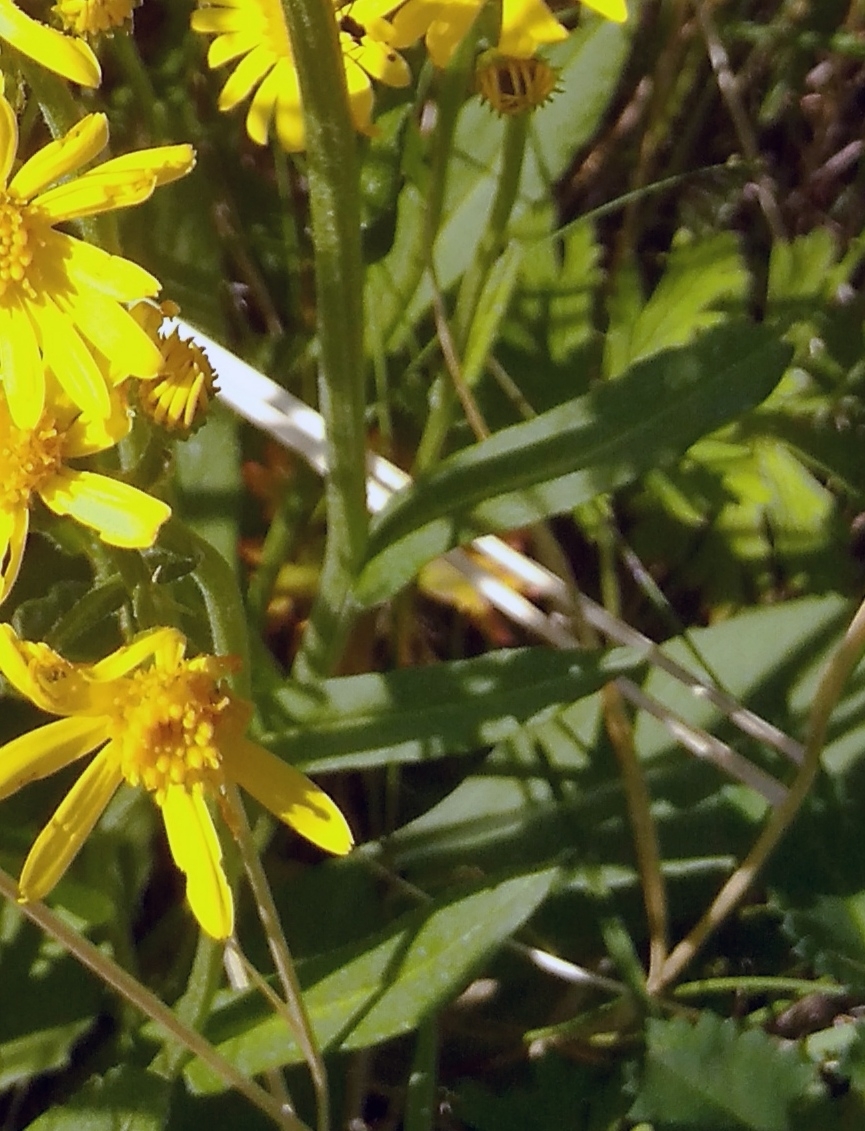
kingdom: Plantae
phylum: Tracheophyta
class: Magnoliopsida
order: Asterales
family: Asteraceae
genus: Tephroseris
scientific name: Tephroseris integrifolia
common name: Field fleawort
